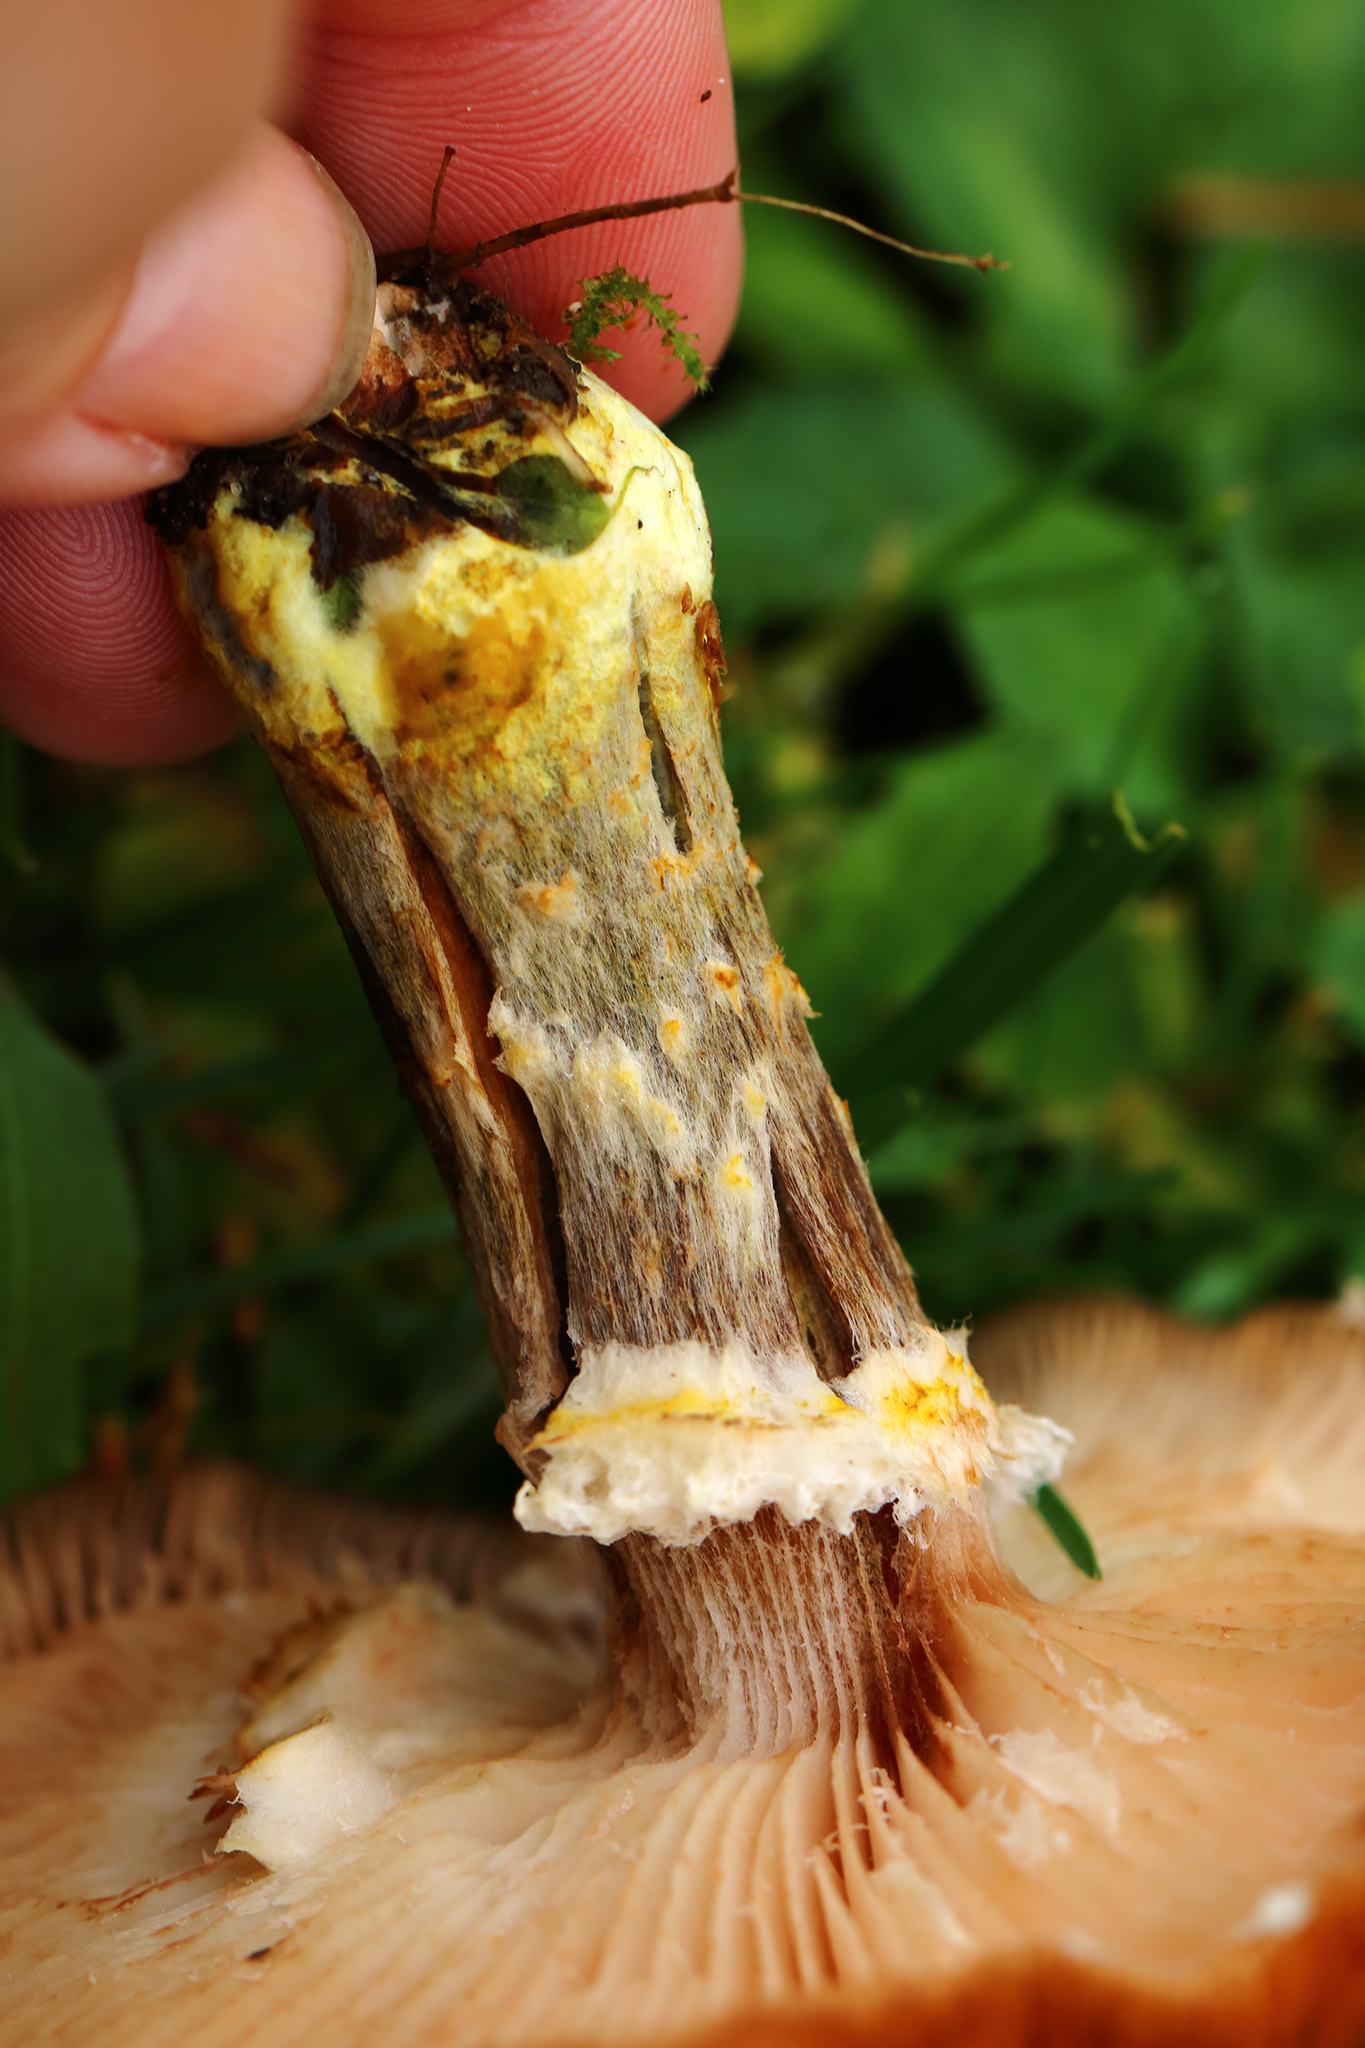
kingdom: Fungi
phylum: Basidiomycota
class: Agaricomycetes
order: Agaricales
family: Physalacriaceae
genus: Armillaria
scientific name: Armillaria gallica
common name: Bulbous honey fungus
